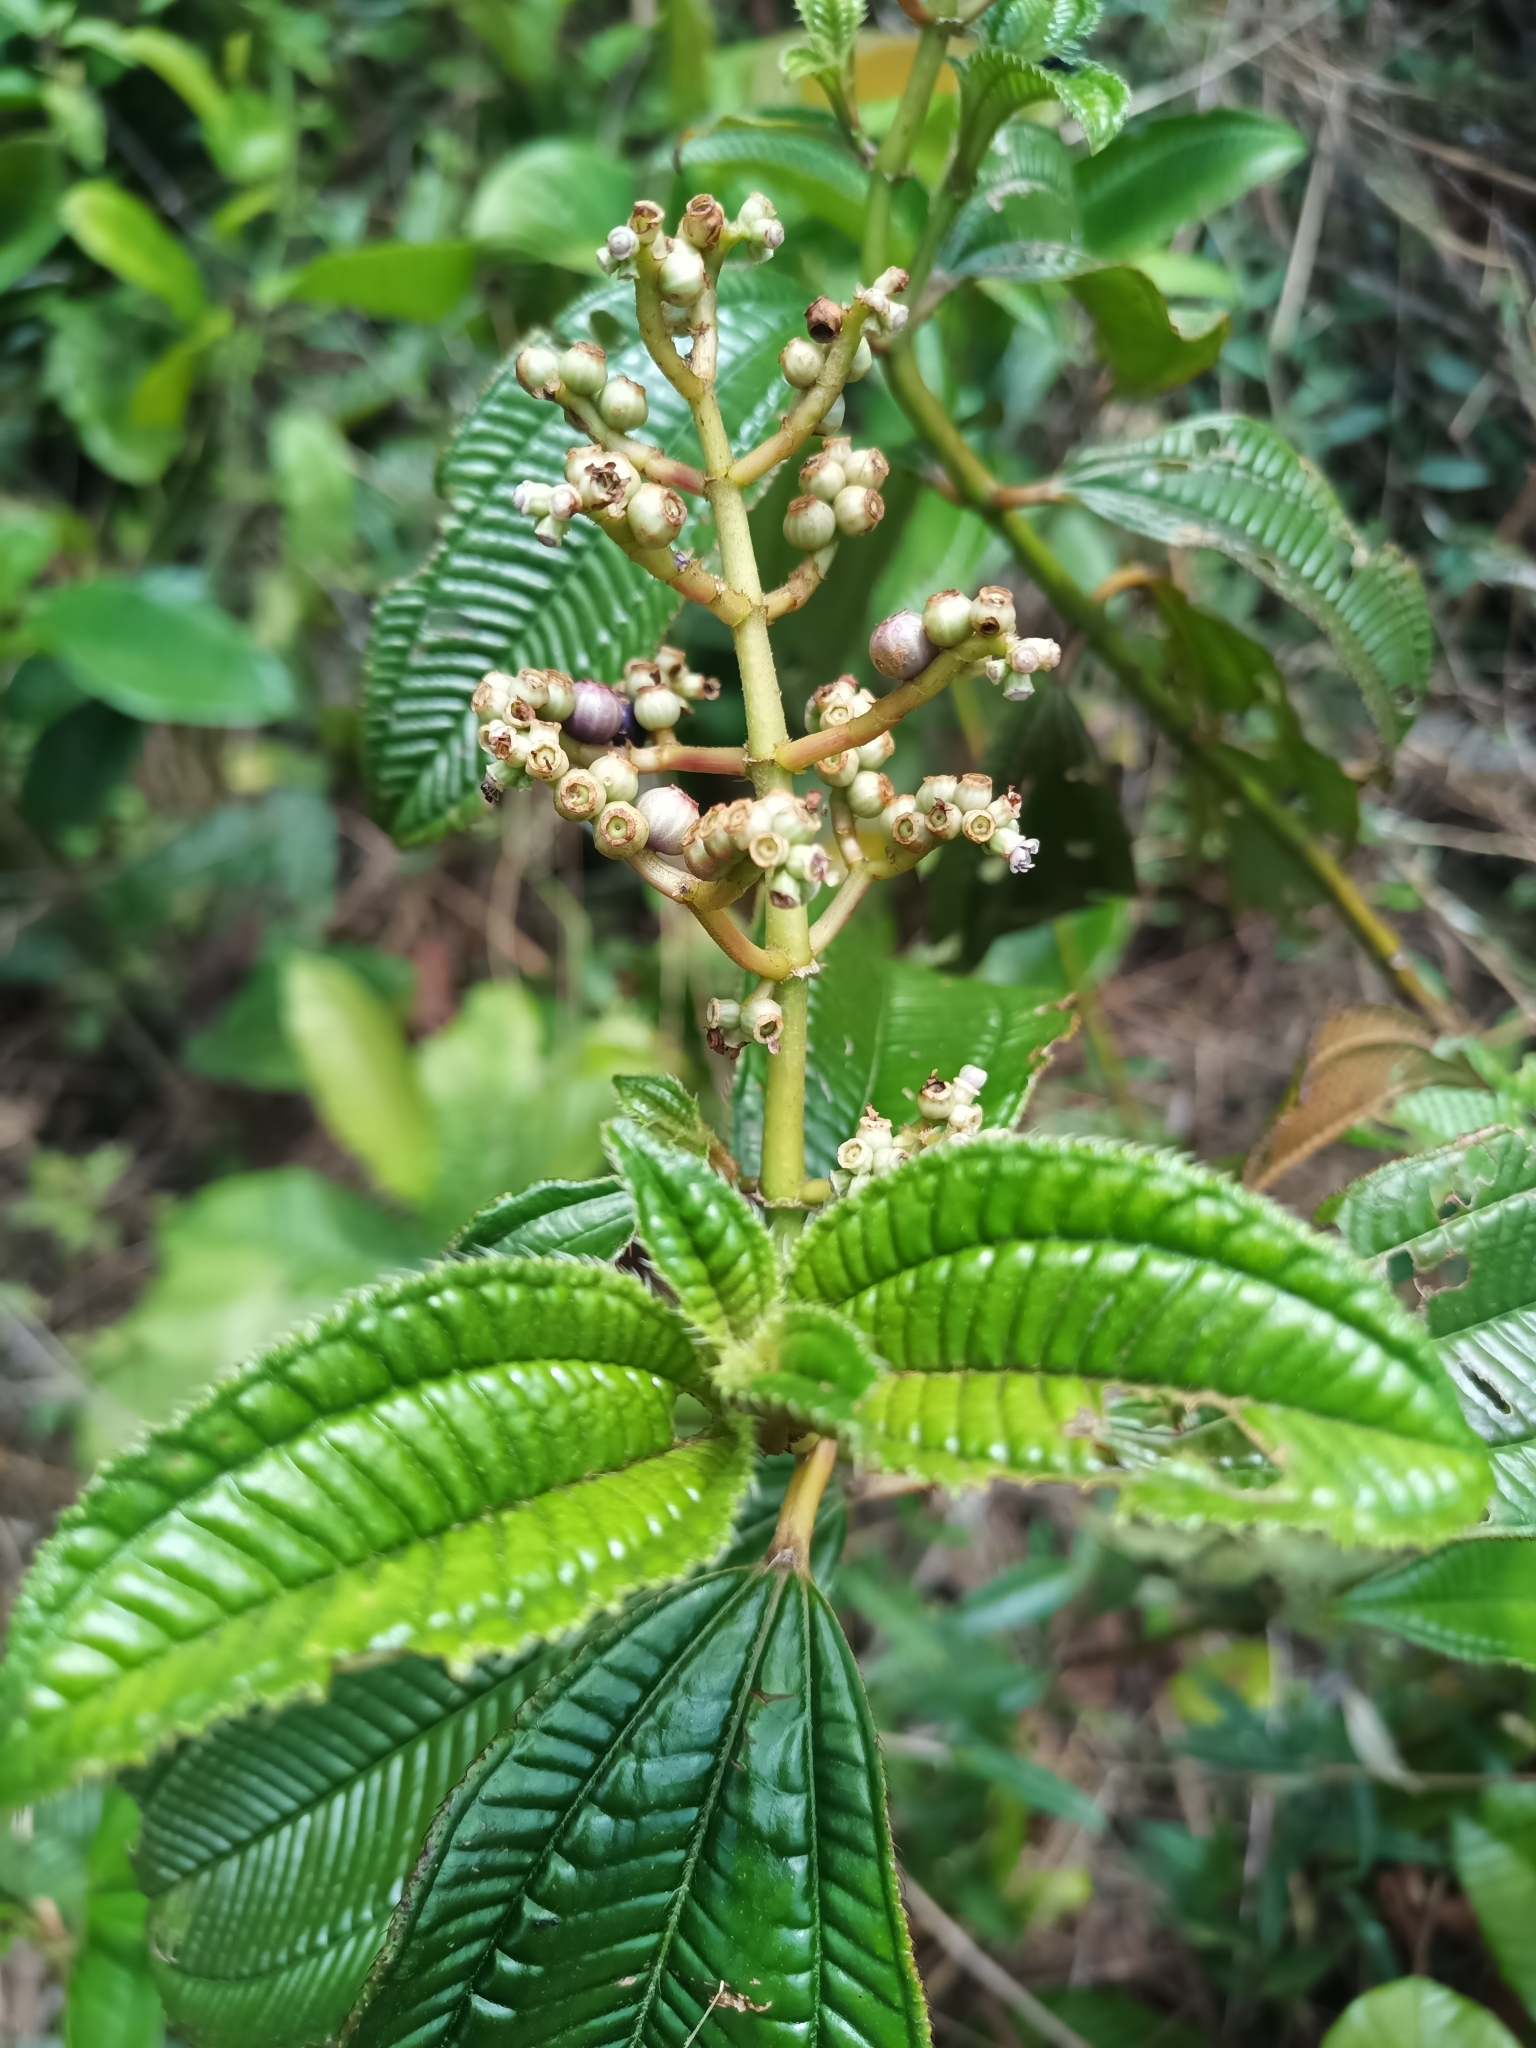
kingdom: Plantae
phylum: Tracheophyta
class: Magnoliopsida
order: Myrtales
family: Melastomataceae
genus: Miconia
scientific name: Miconia racemosa
